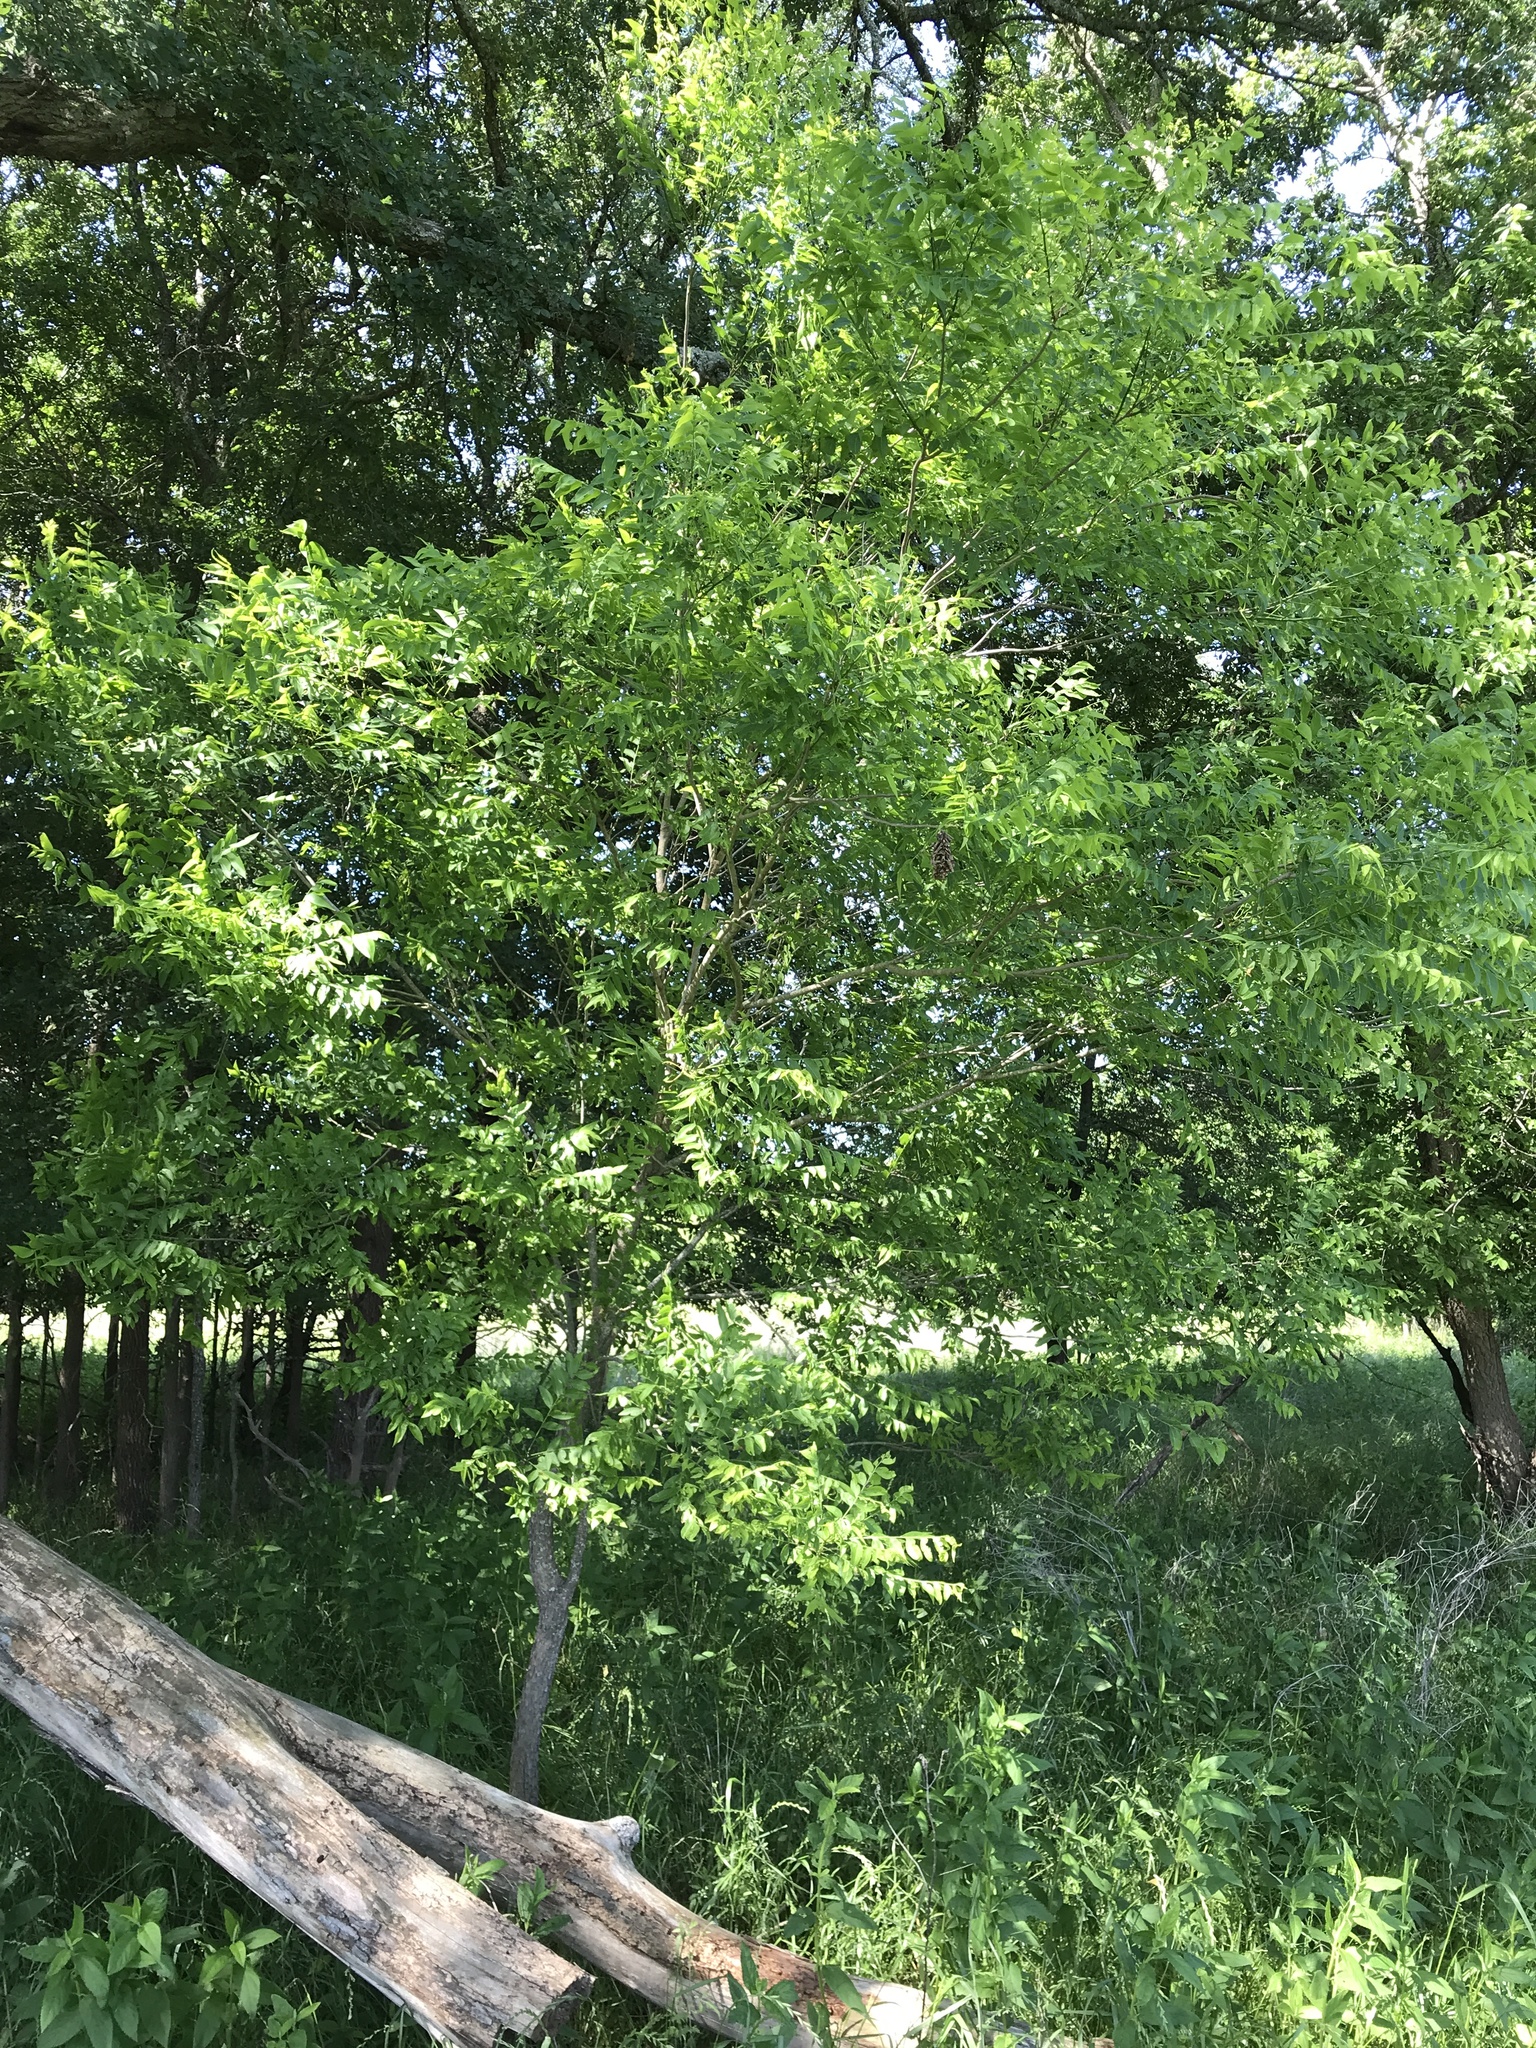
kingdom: Plantae
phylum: Tracheophyta
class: Magnoliopsida
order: Sapindales
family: Sapindaceae
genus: Sapindus
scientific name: Sapindus drummondii
